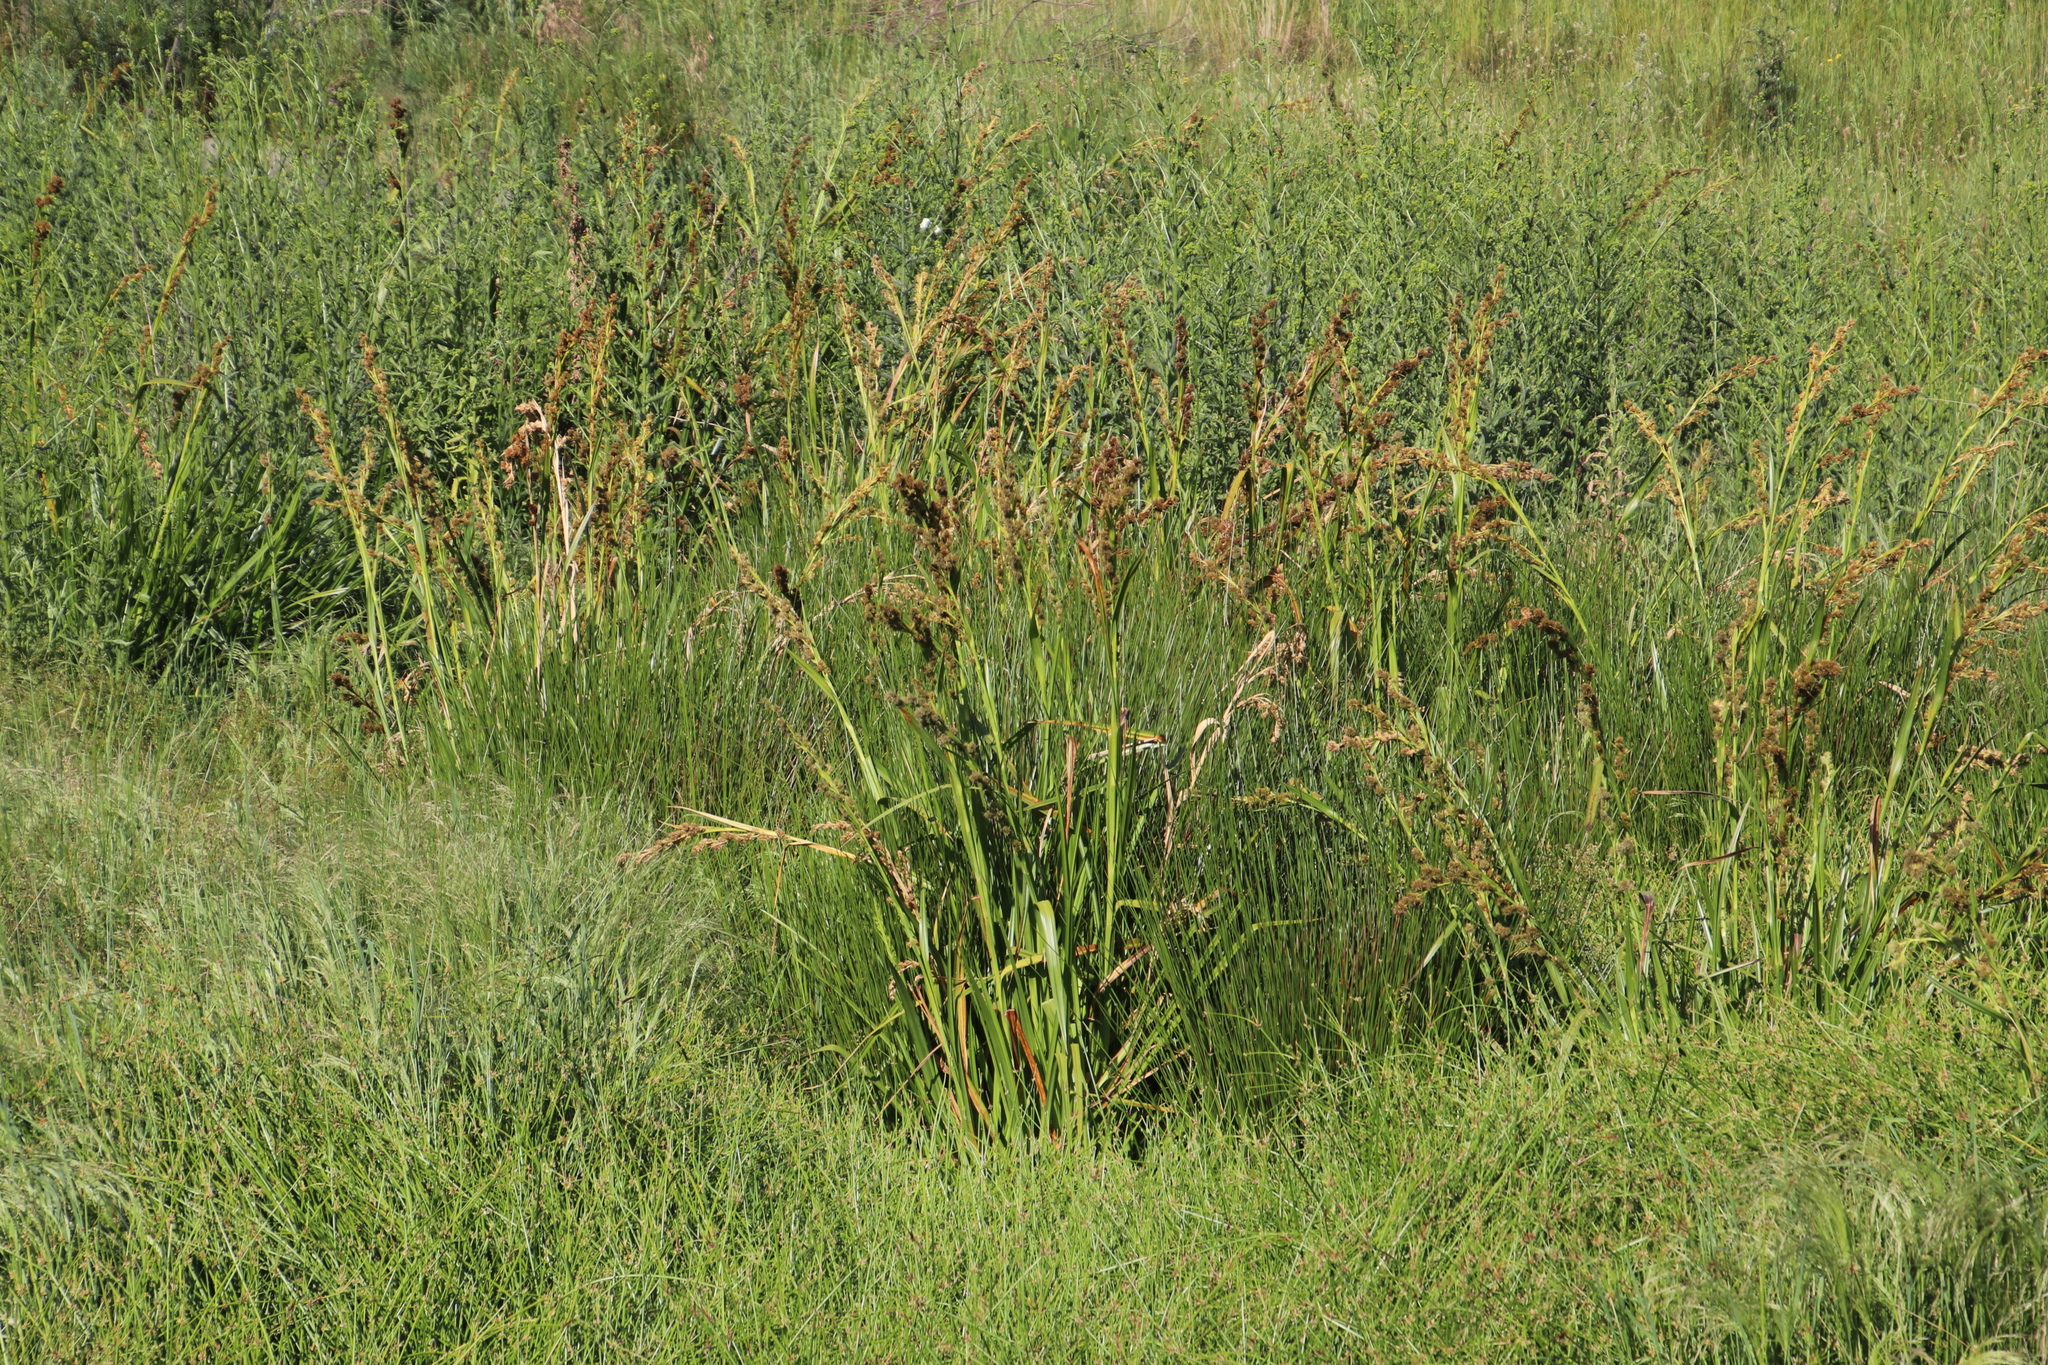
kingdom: Plantae
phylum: Tracheophyta
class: Liliopsida
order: Poales
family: Cyperaceae
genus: Carpha
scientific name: Carpha glomerata
